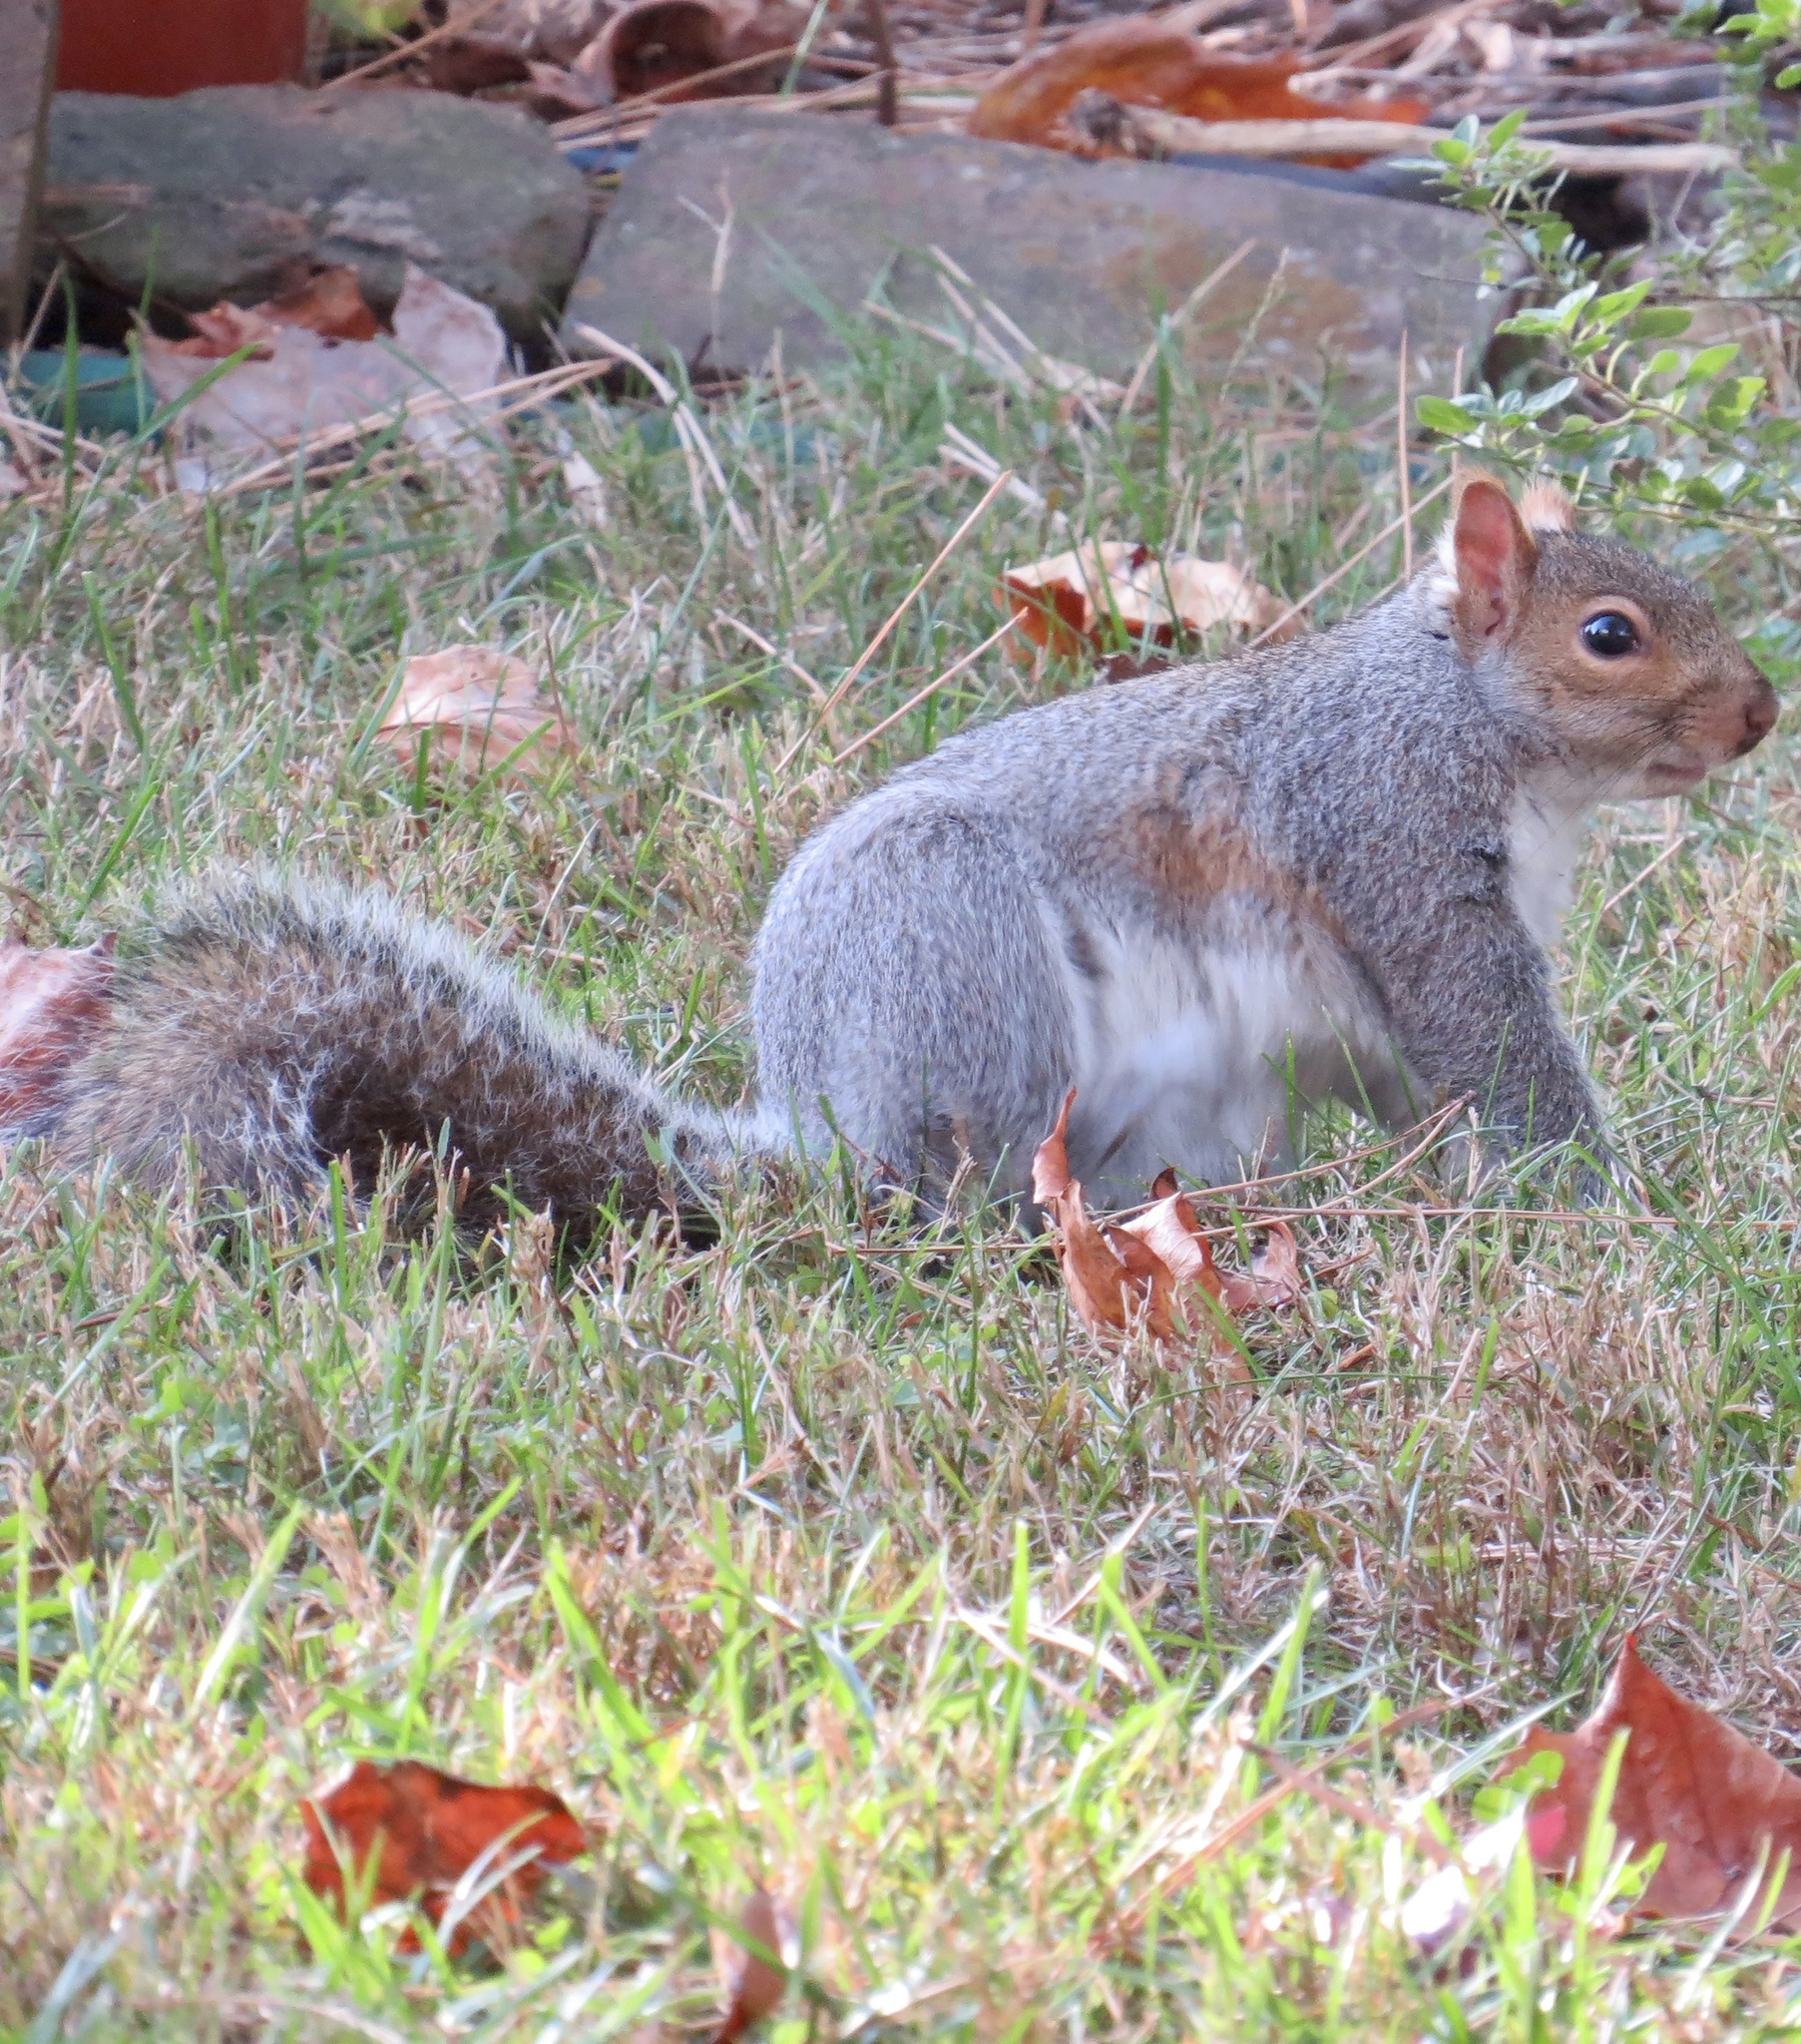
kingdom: Animalia
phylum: Chordata
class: Mammalia
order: Rodentia
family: Sciuridae
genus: Sciurus
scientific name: Sciurus carolinensis
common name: Eastern gray squirrel
